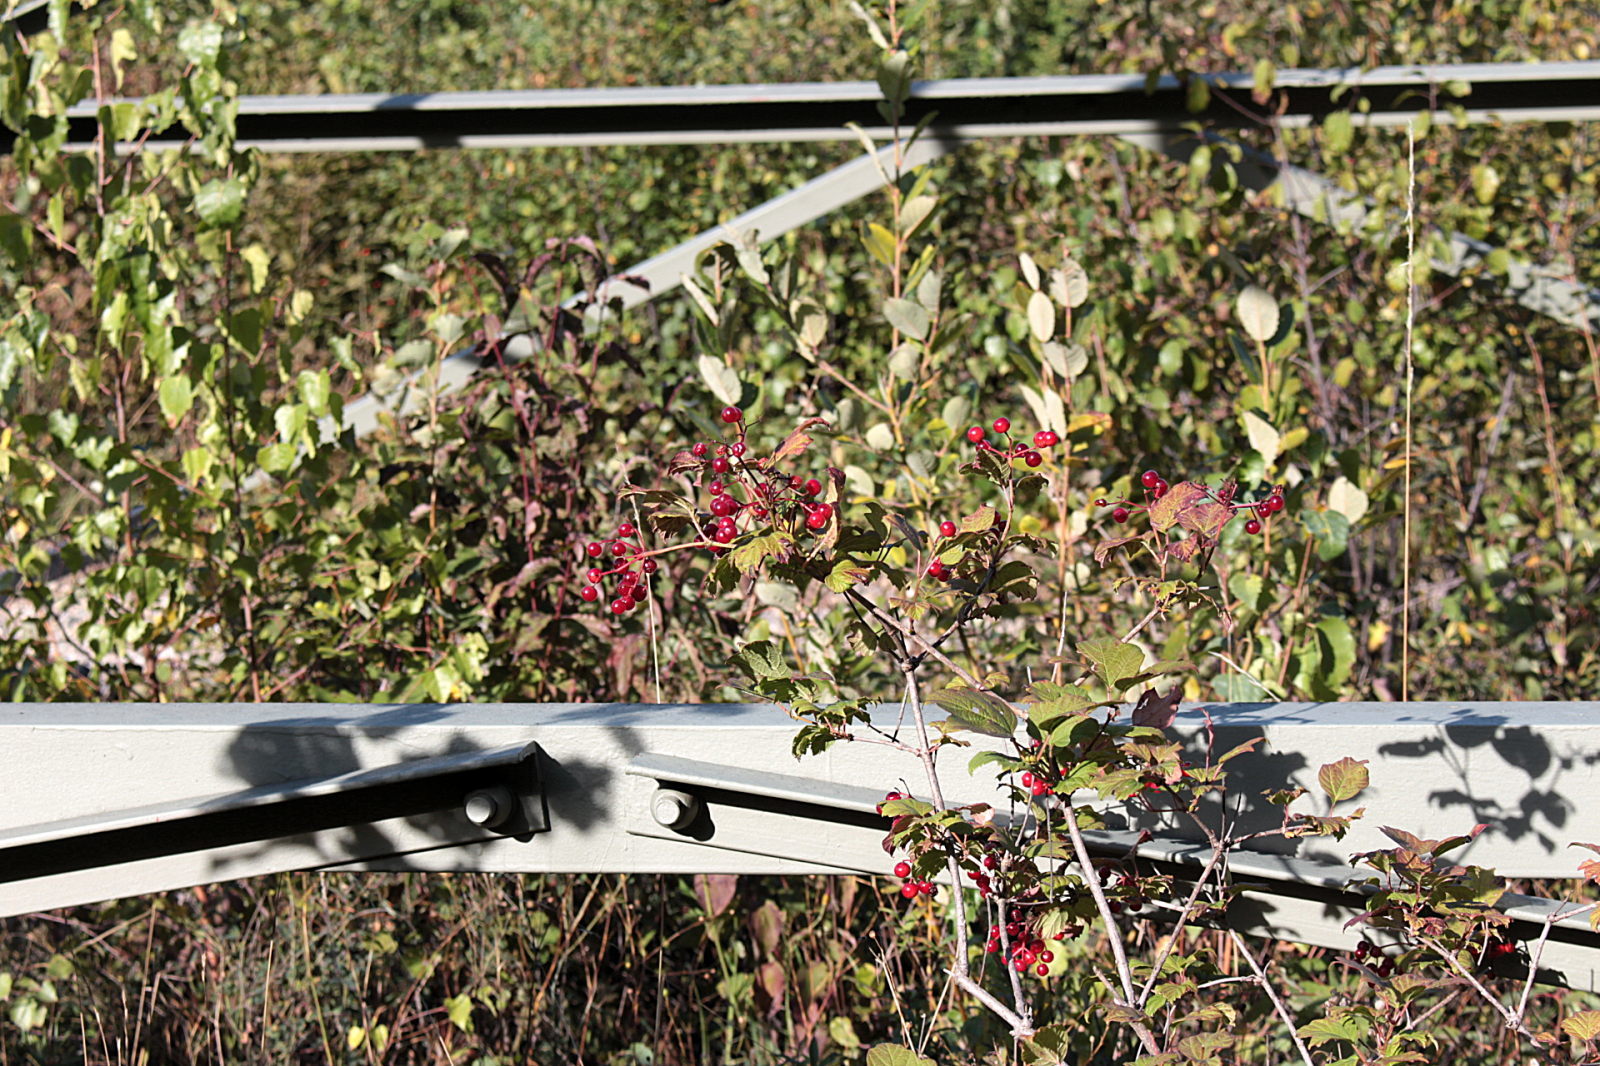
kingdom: Plantae
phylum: Tracheophyta
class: Magnoliopsida
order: Dipsacales
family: Viburnaceae
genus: Viburnum
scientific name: Viburnum opulus
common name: Guelder-rose
